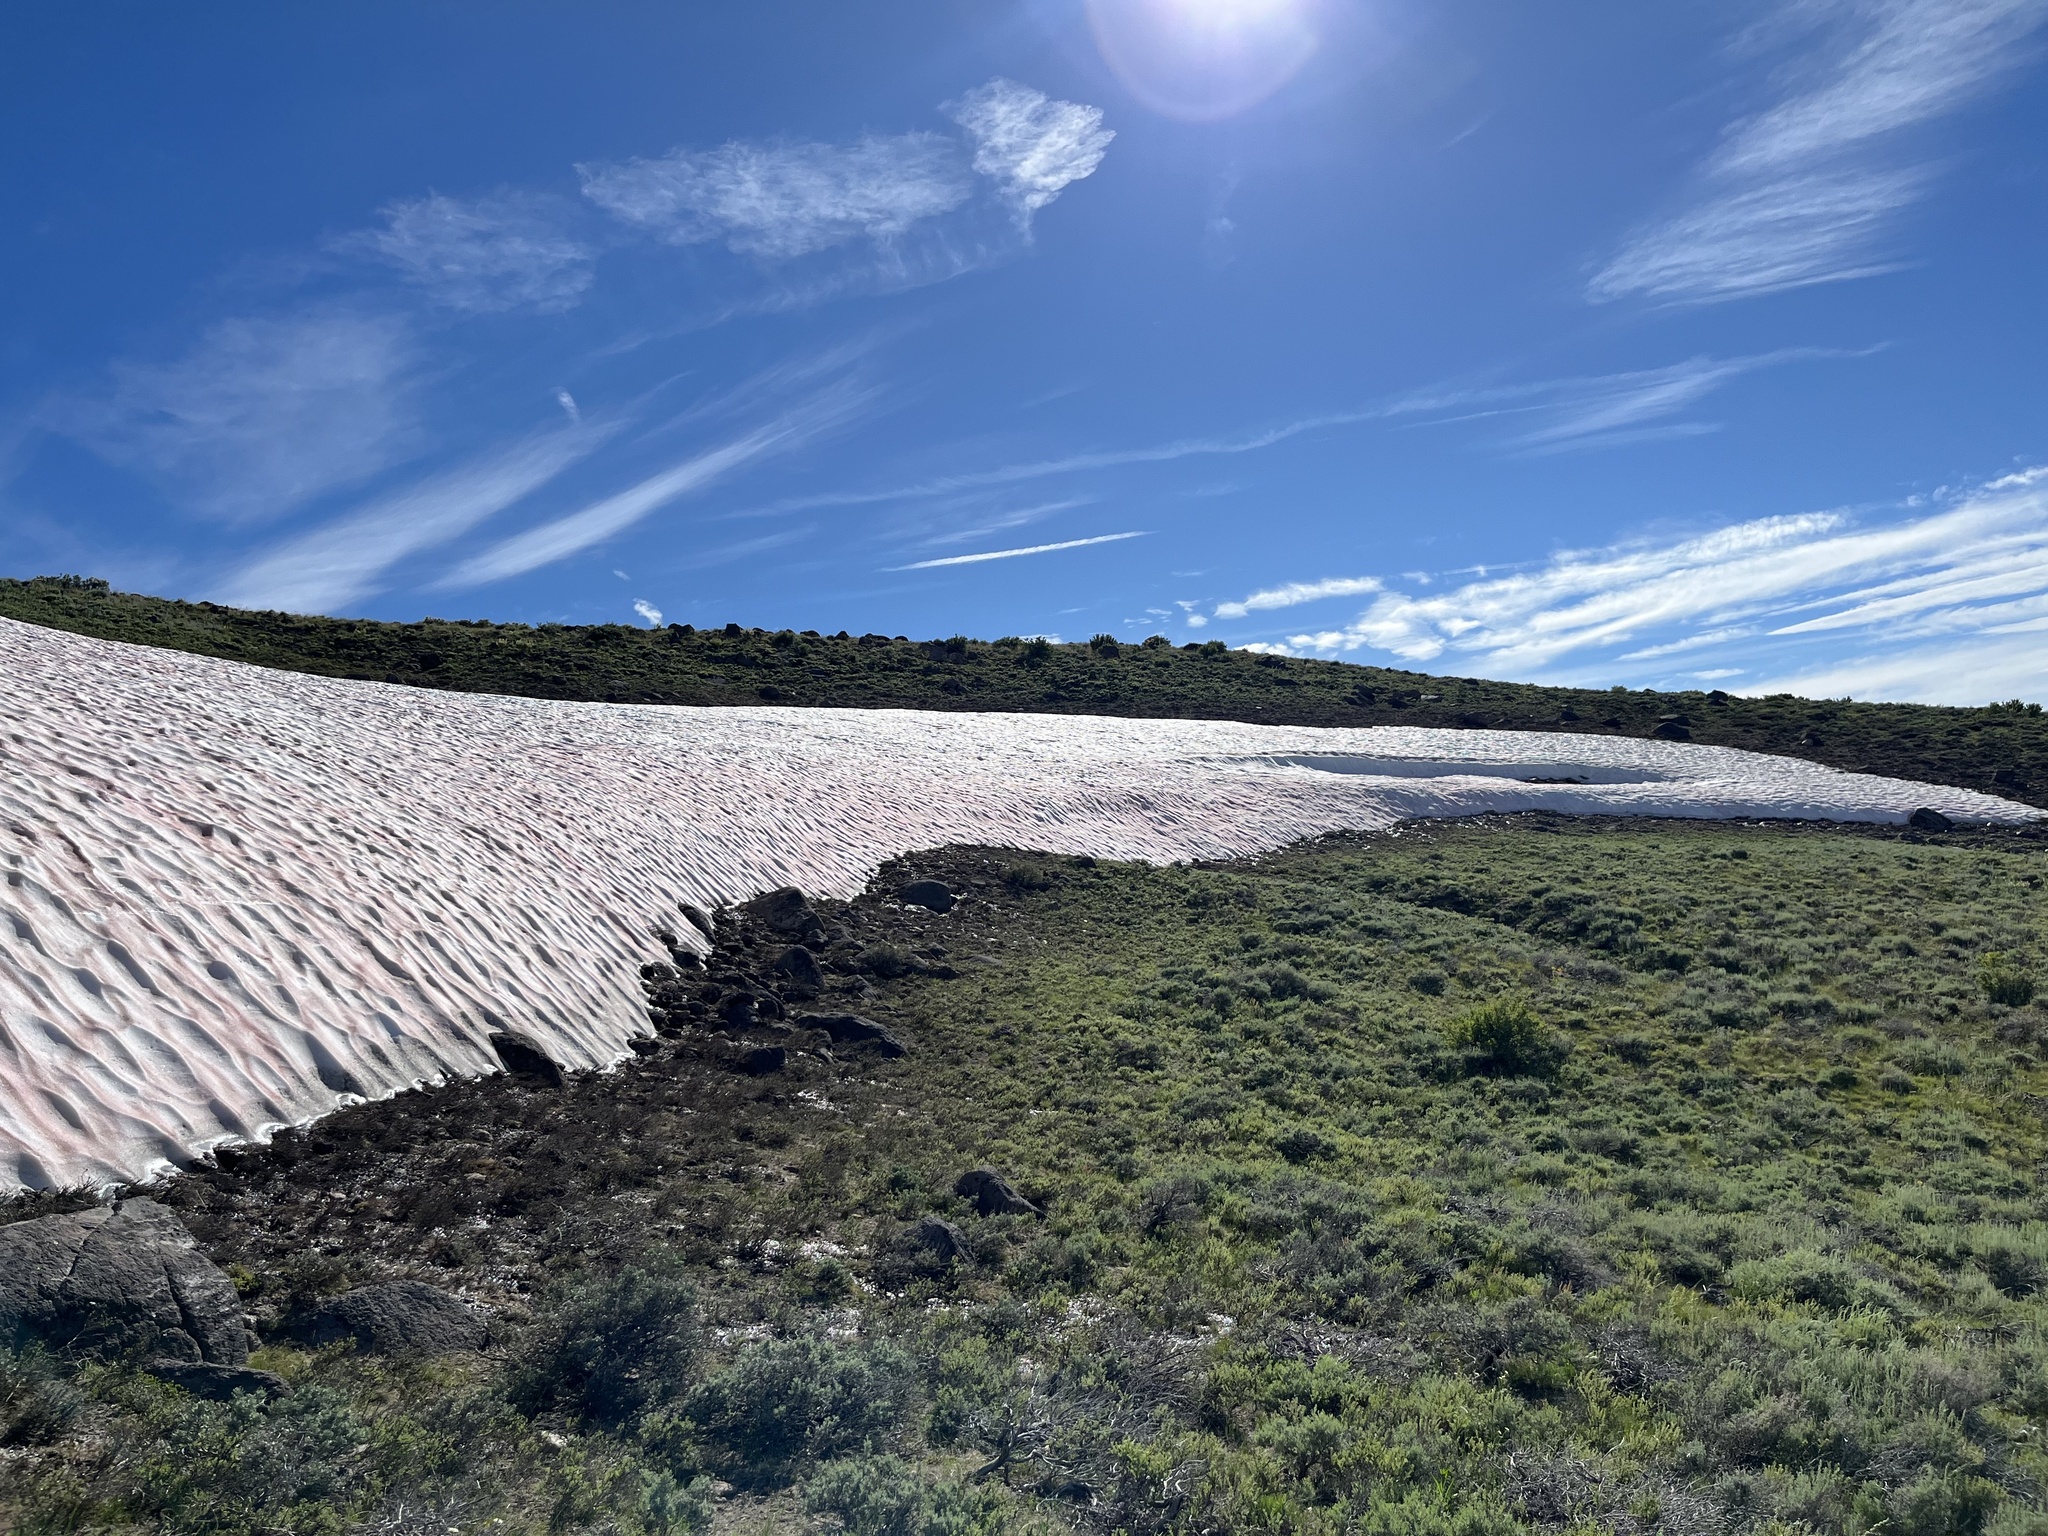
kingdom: Plantae
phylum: Chlorophyta
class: Chlorophyceae
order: Volvocales
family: Chlamydomonadaceae
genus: Chlamydomonas
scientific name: Chlamydomonas nivalis
